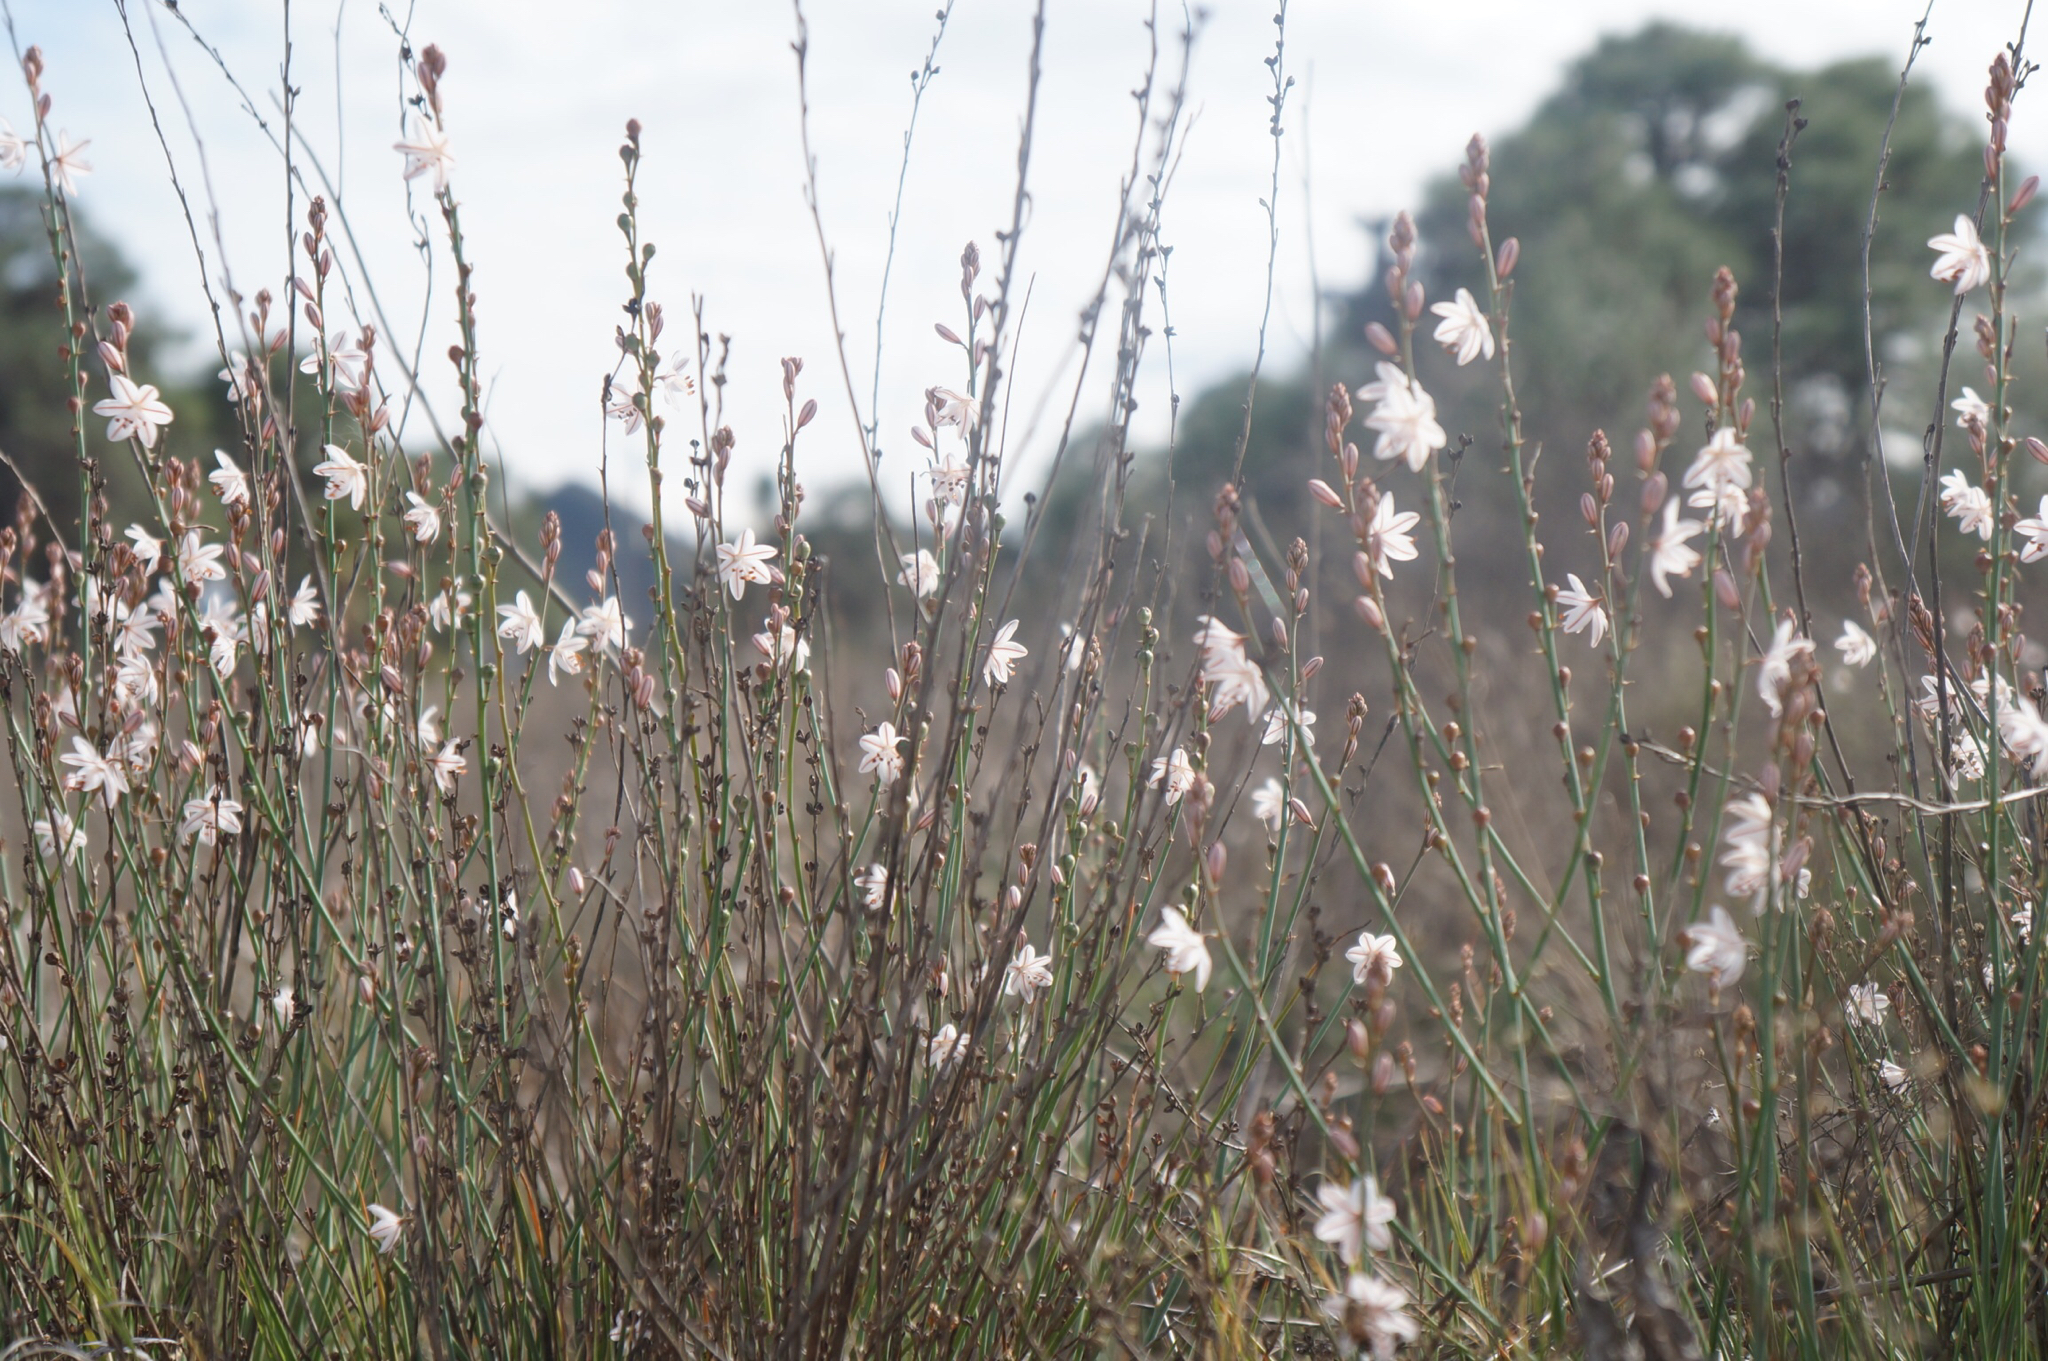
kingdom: Plantae
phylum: Tracheophyta
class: Liliopsida
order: Asparagales
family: Asphodelaceae
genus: Asphodelus
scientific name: Asphodelus fistulosus
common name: Onionweed
